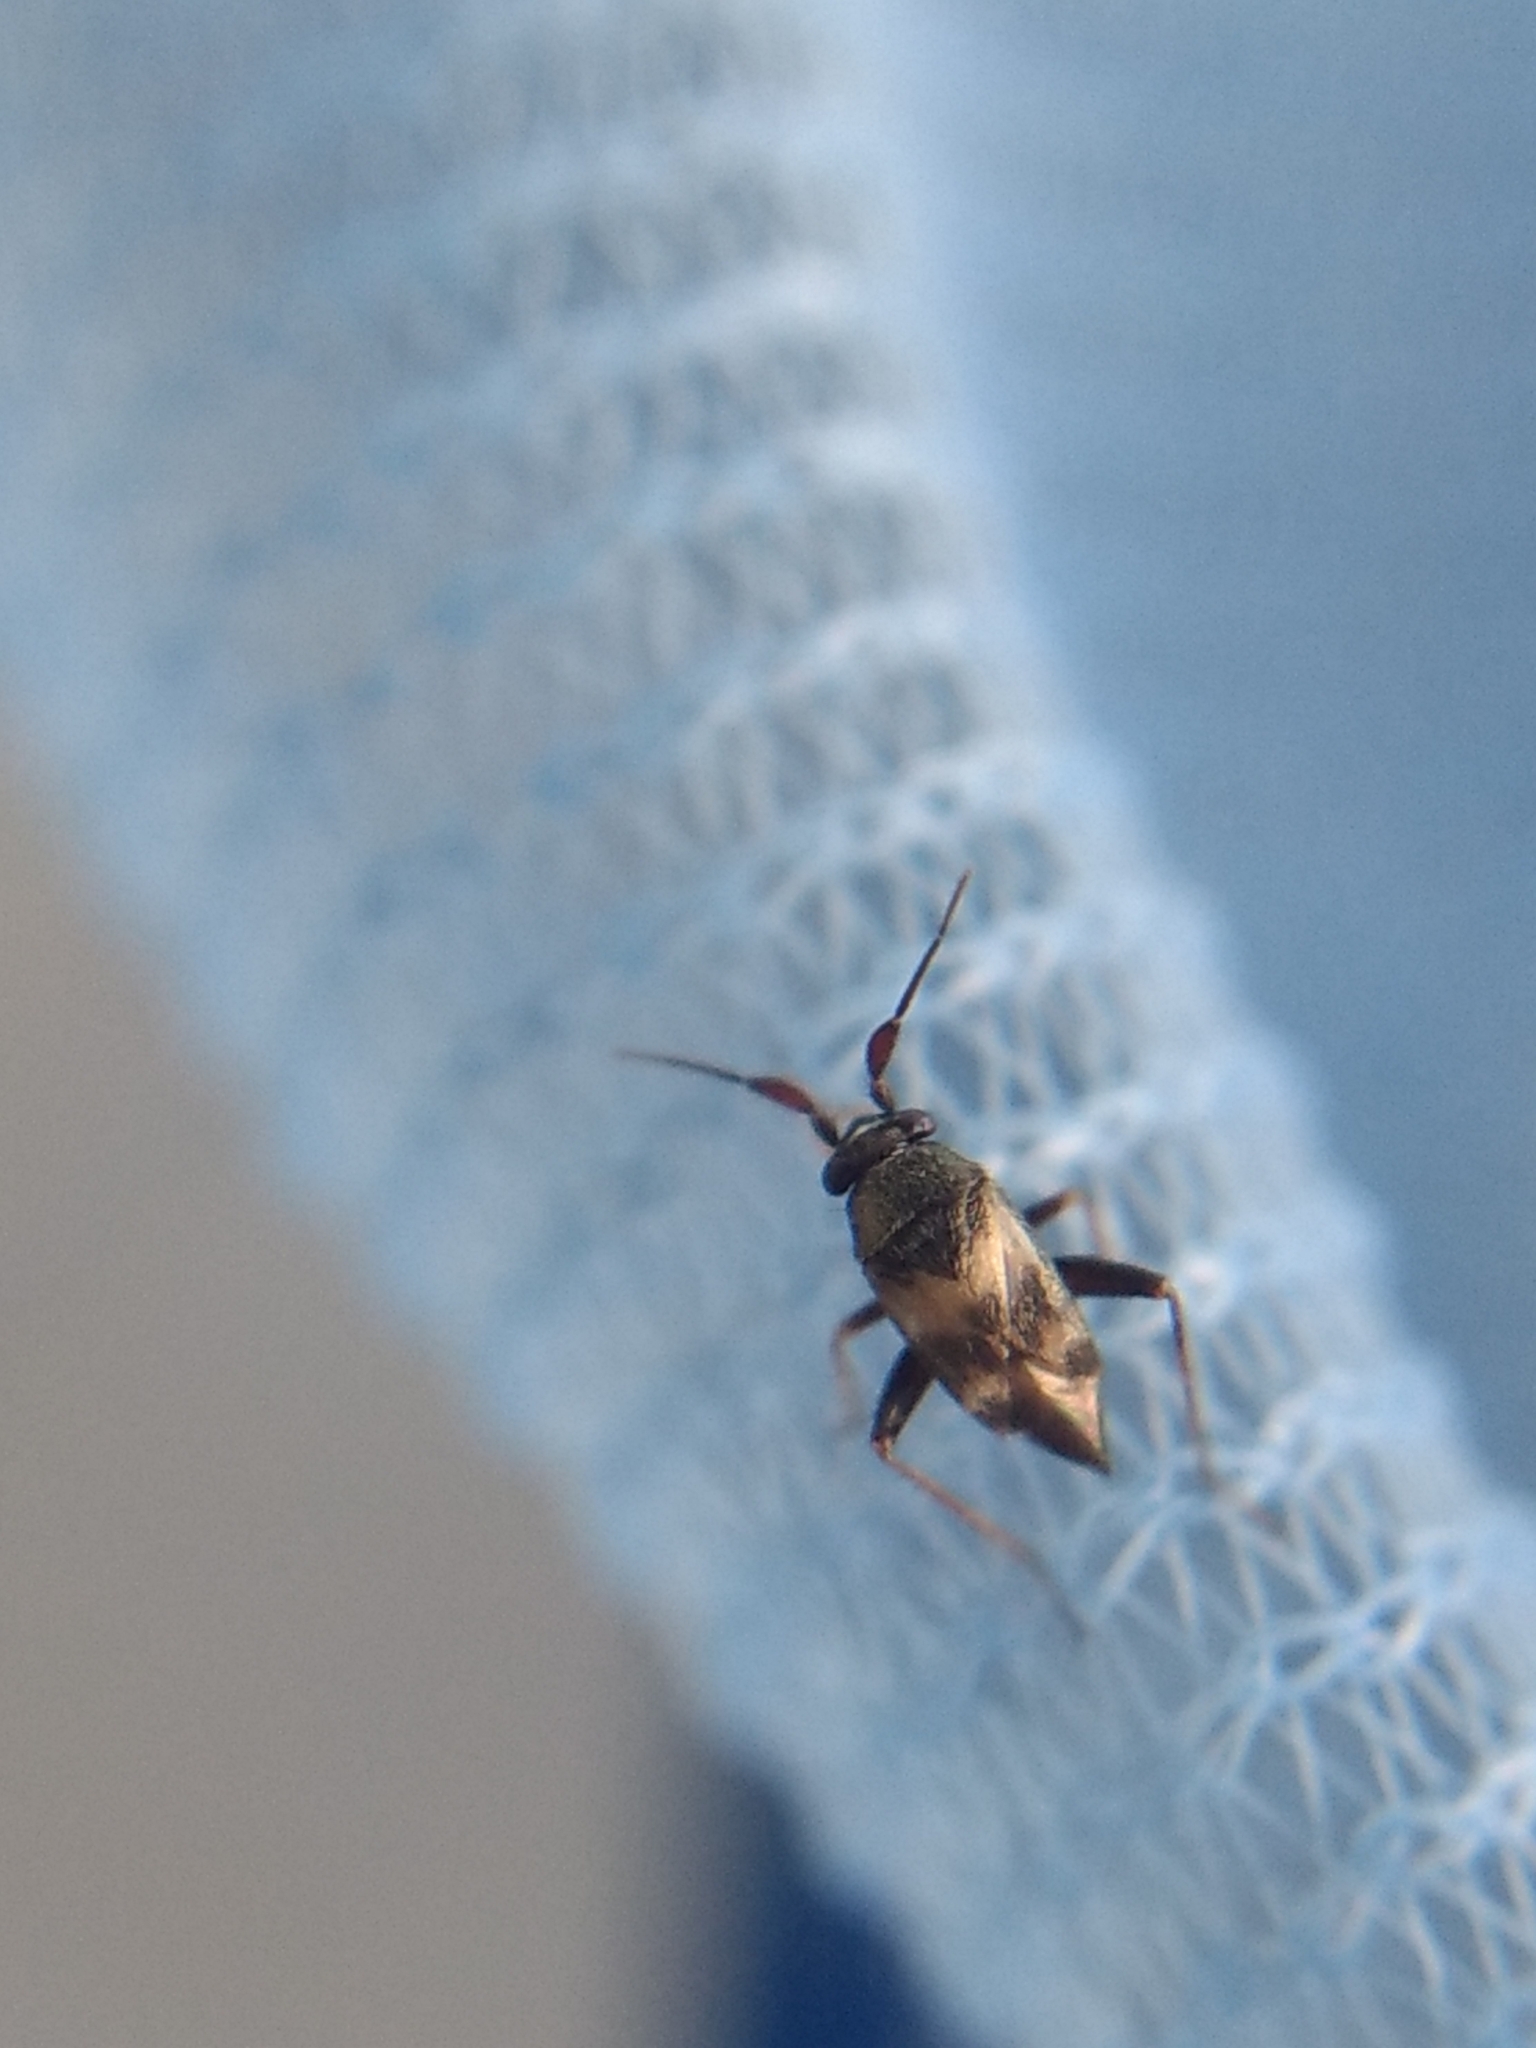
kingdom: Animalia
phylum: Arthropoda
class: Insecta
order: Hemiptera
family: Miridae
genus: Spanagonicus
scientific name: Spanagonicus albofasciatus
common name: Whitemarked fleahopper
